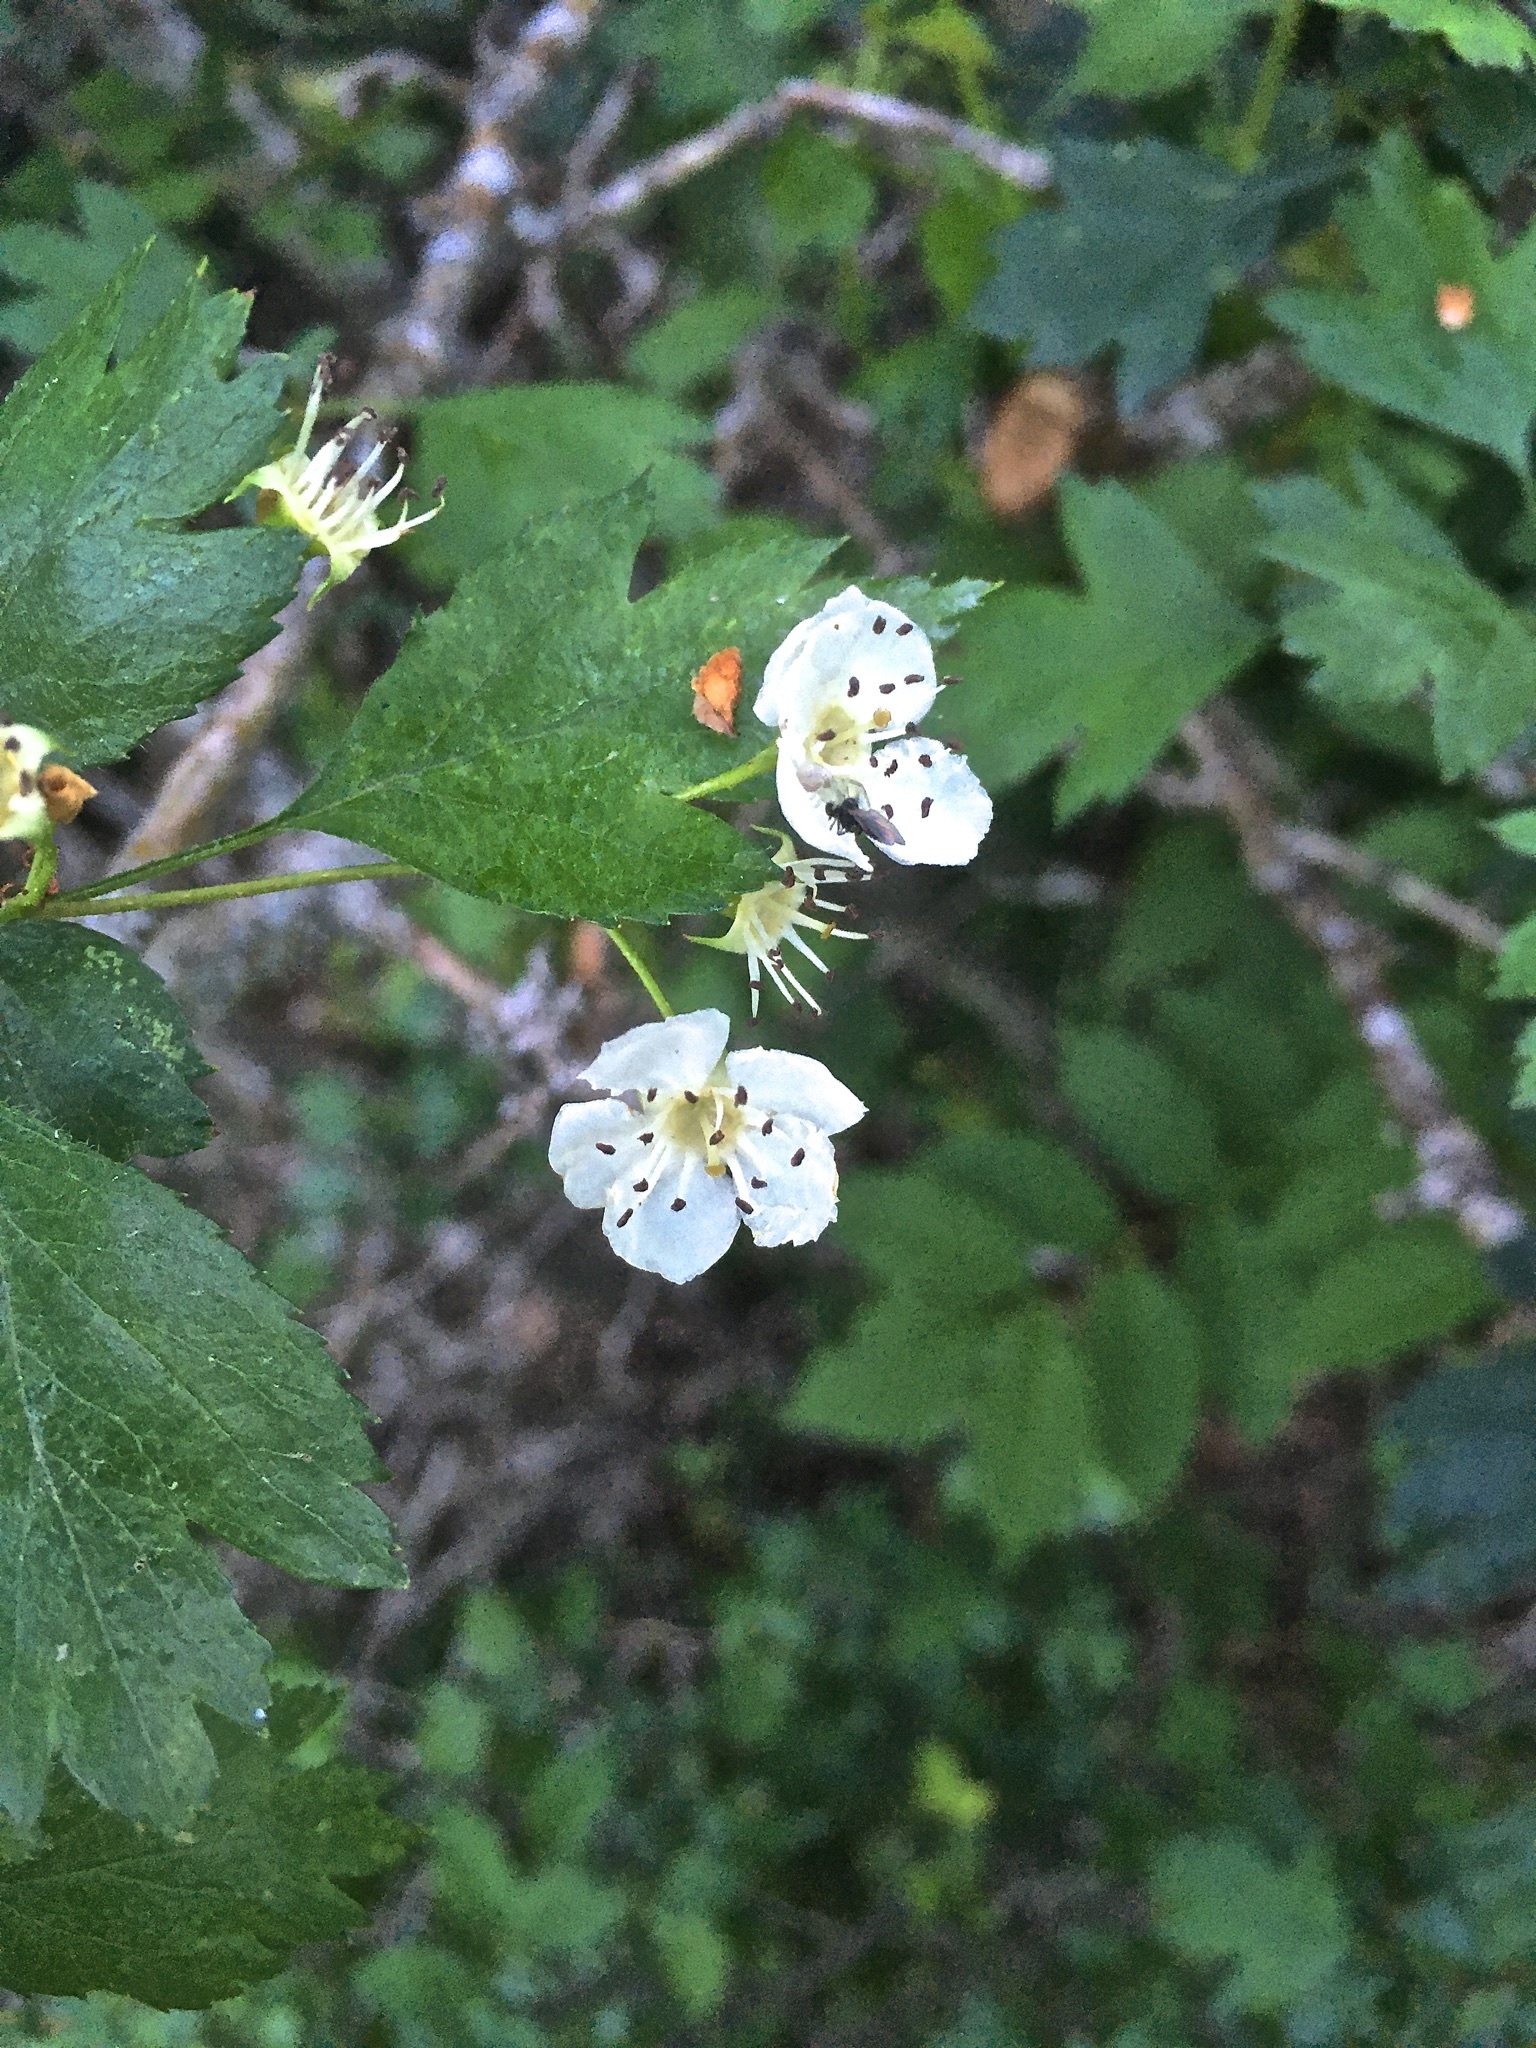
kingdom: Plantae
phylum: Tracheophyta
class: Magnoliopsida
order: Rosales
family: Rosaceae
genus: Crataegus
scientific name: Crataegus monogyna
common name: Hawthorn
